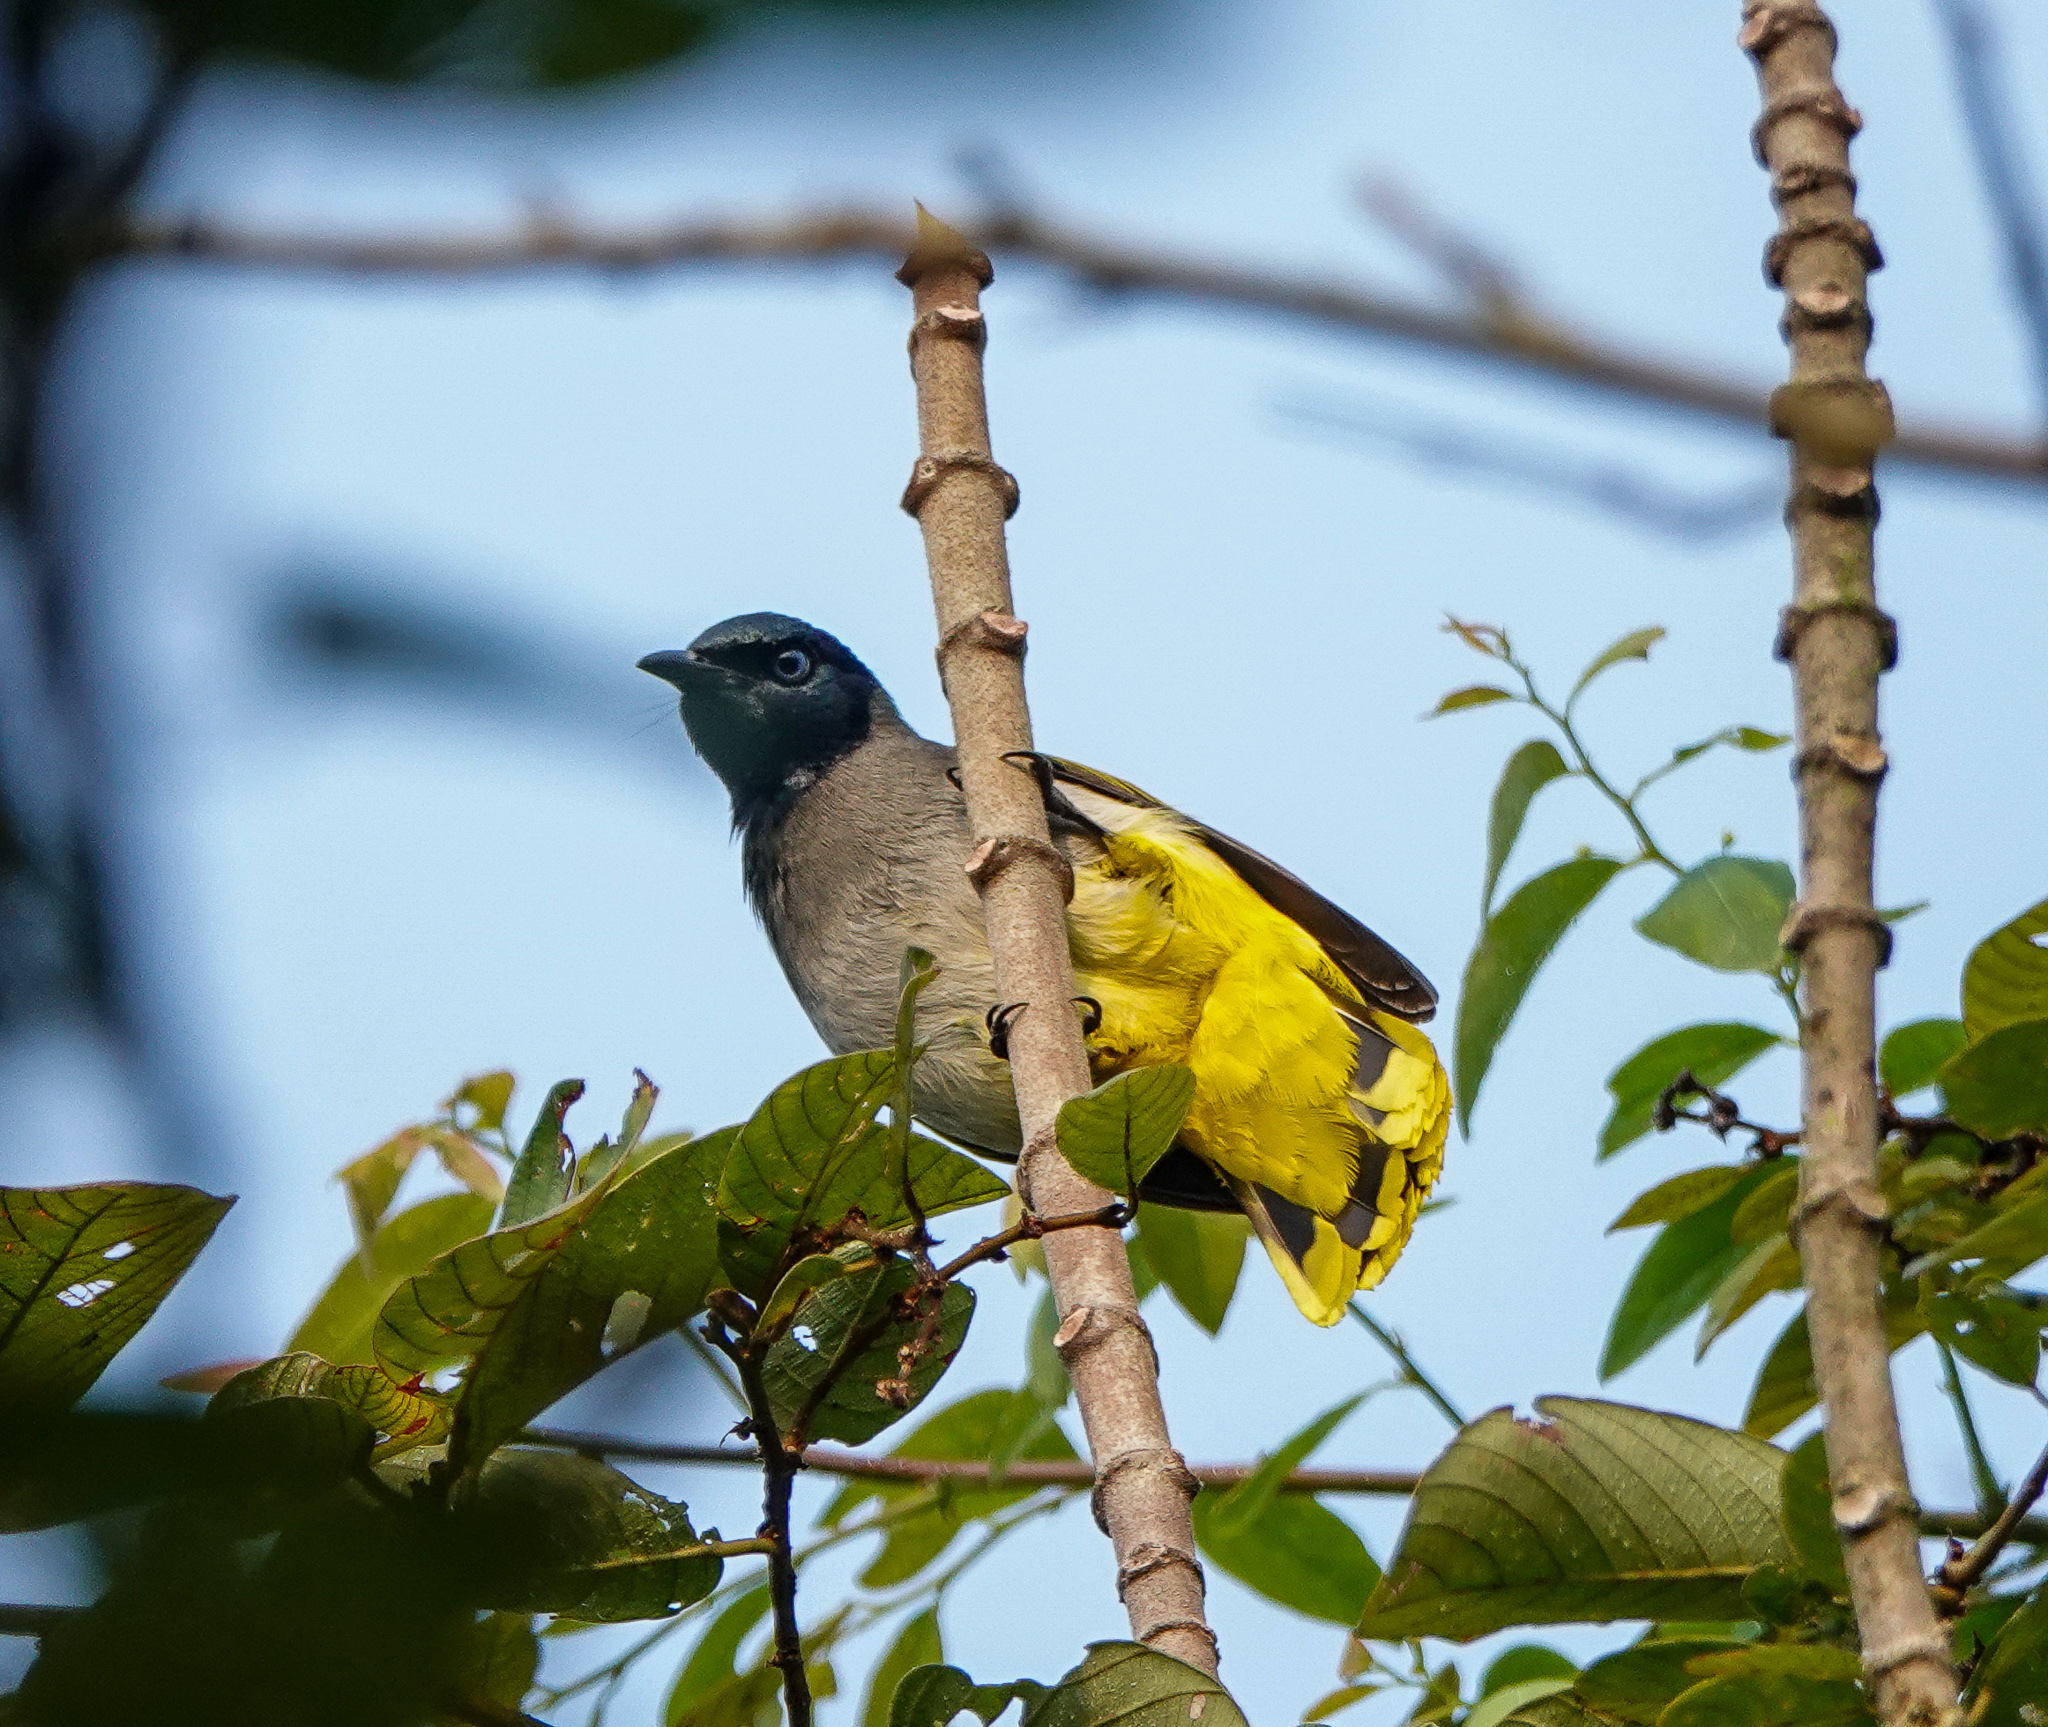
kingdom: Animalia
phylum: Chordata
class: Aves
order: Passeriformes
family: Pycnonotidae
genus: Microtarsus
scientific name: Microtarsus
